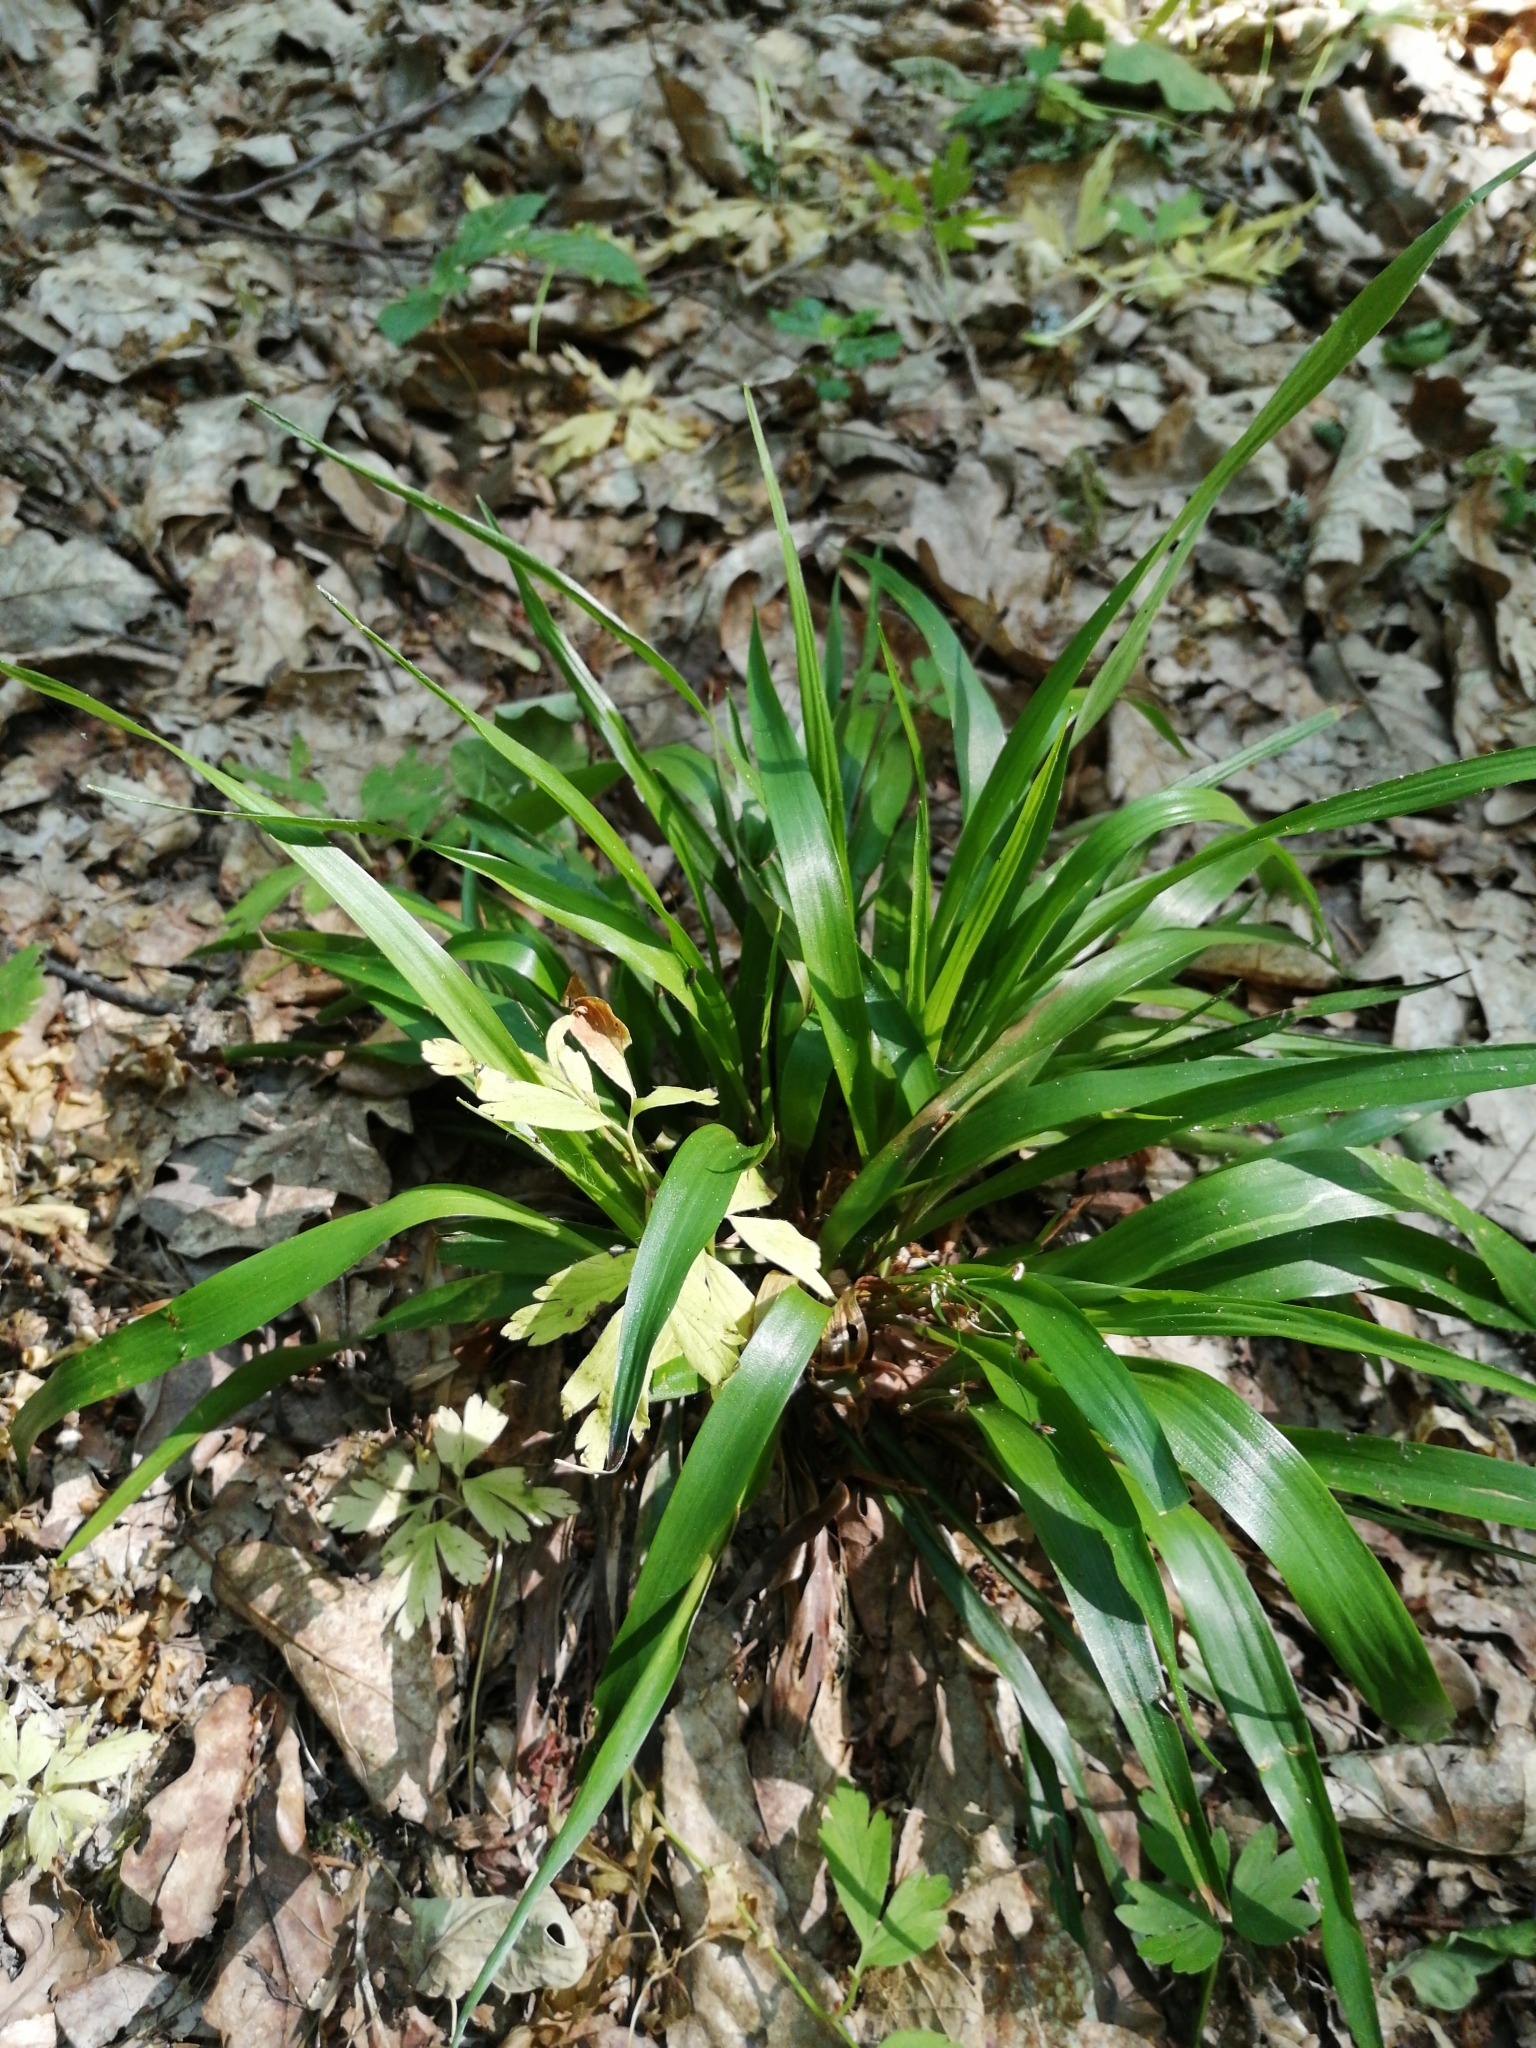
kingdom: Plantae
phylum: Tracheophyta
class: Liliopsida
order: Poales
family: Juncaceae
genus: Luzula
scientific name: Luzula pilosa
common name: Hairy wood-rush
